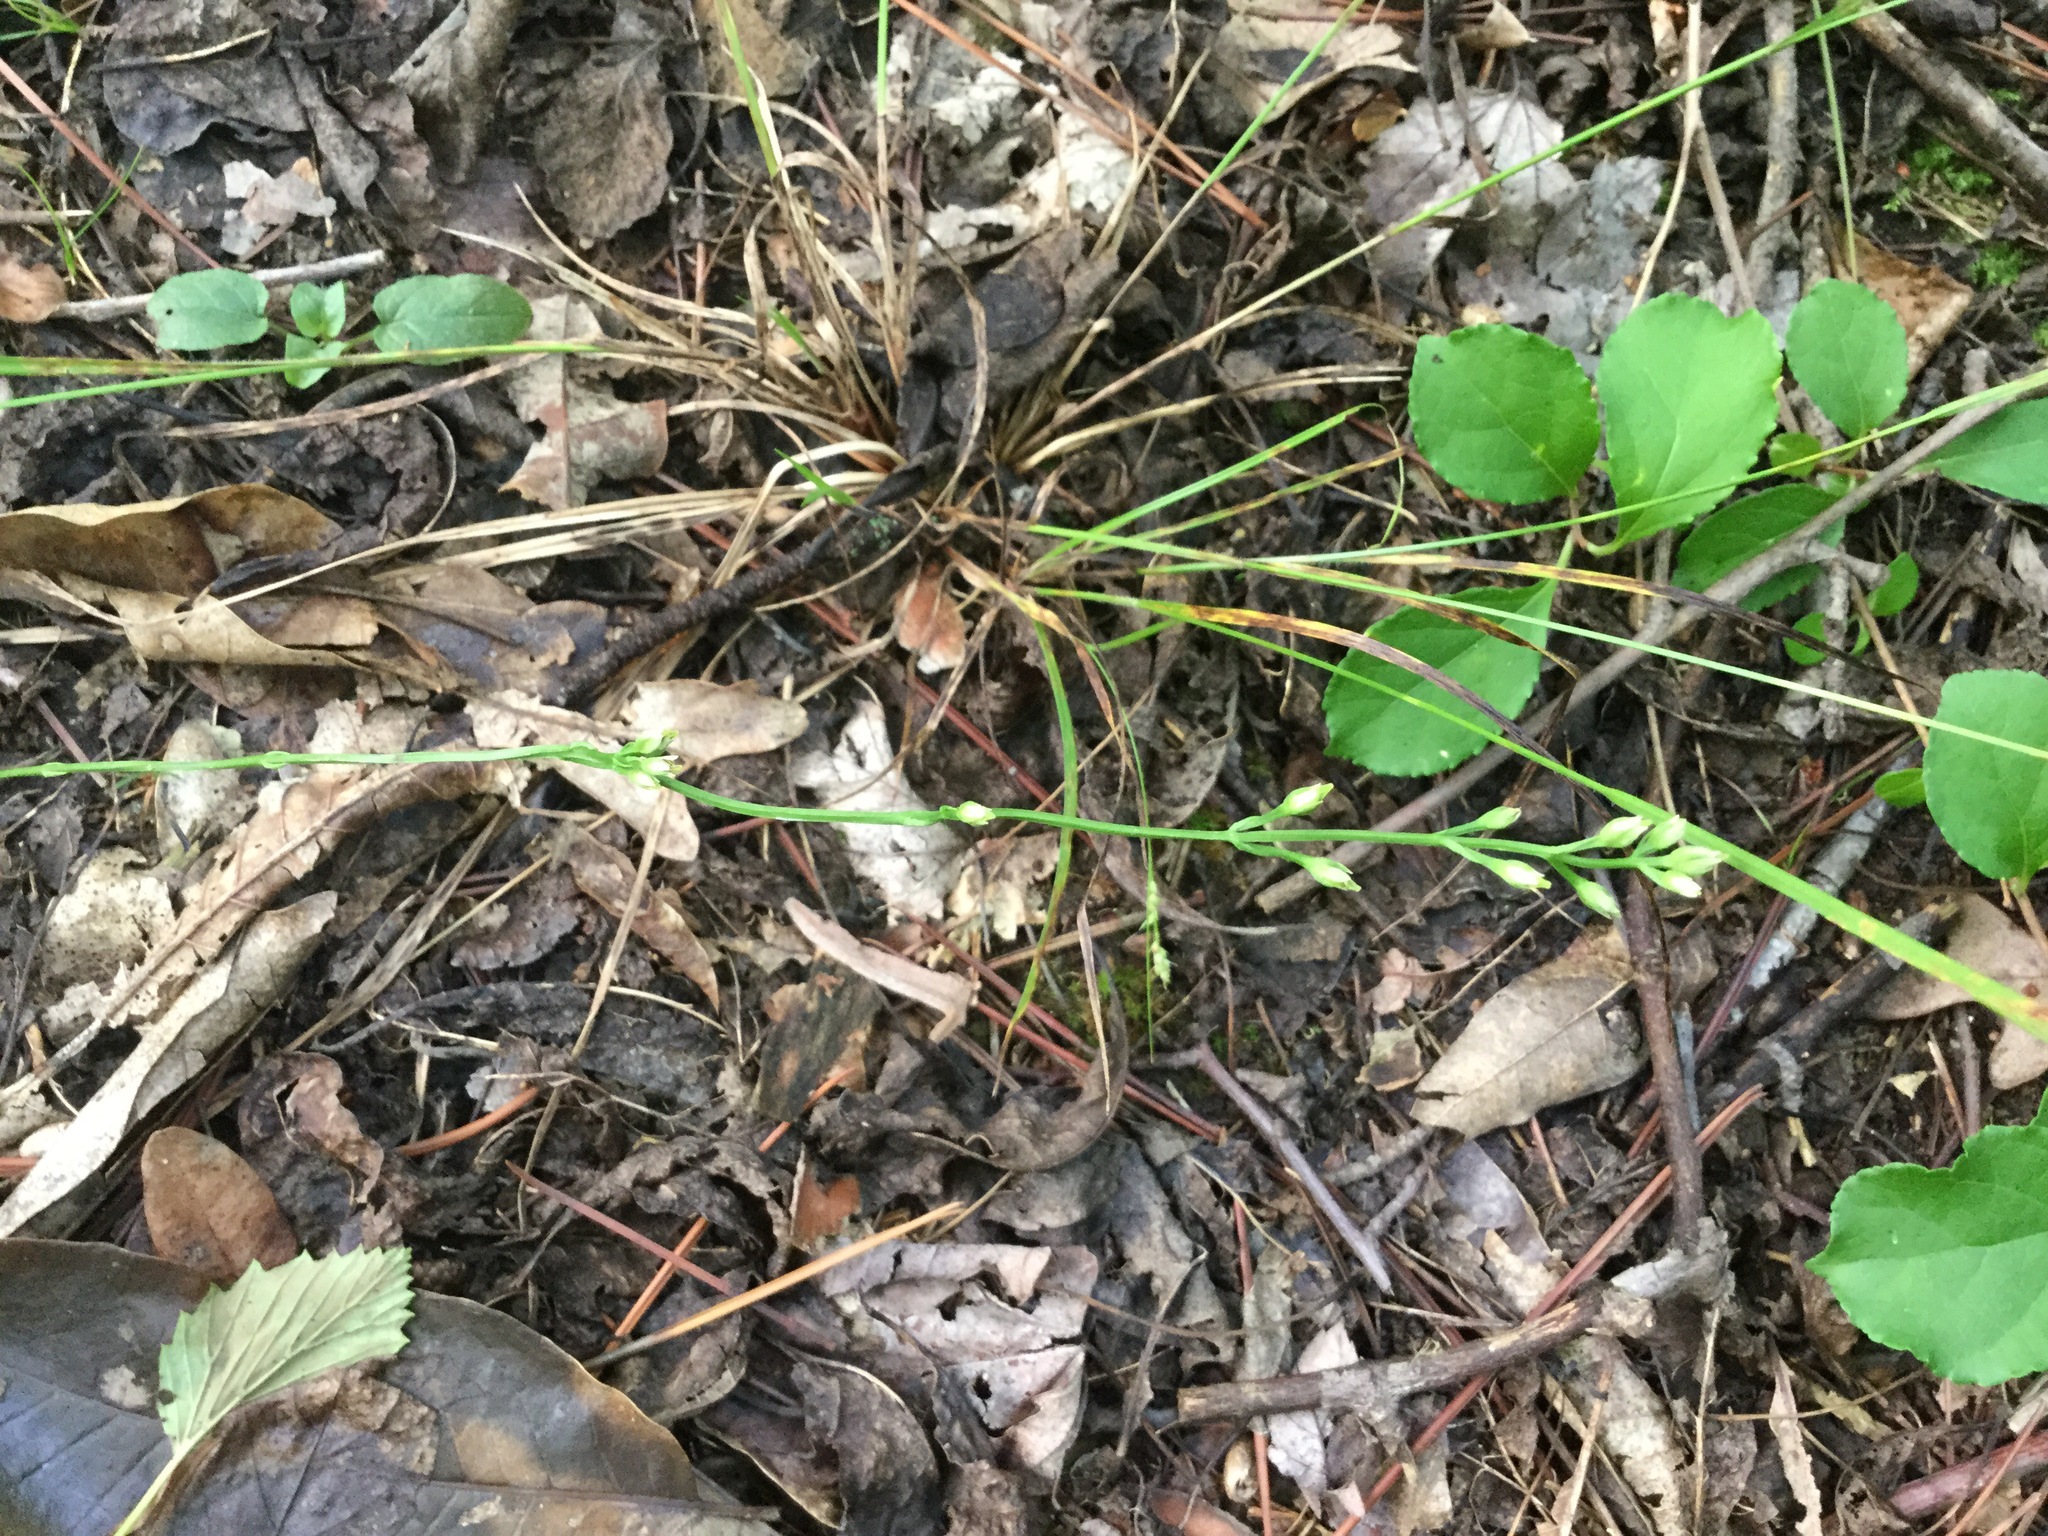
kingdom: Plantae
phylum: Tracheophyta
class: Magnoliopsida
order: Gentianales
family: Gentianaceae
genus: Bartonia
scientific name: Bartonia virginica
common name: Yellow bartonia
